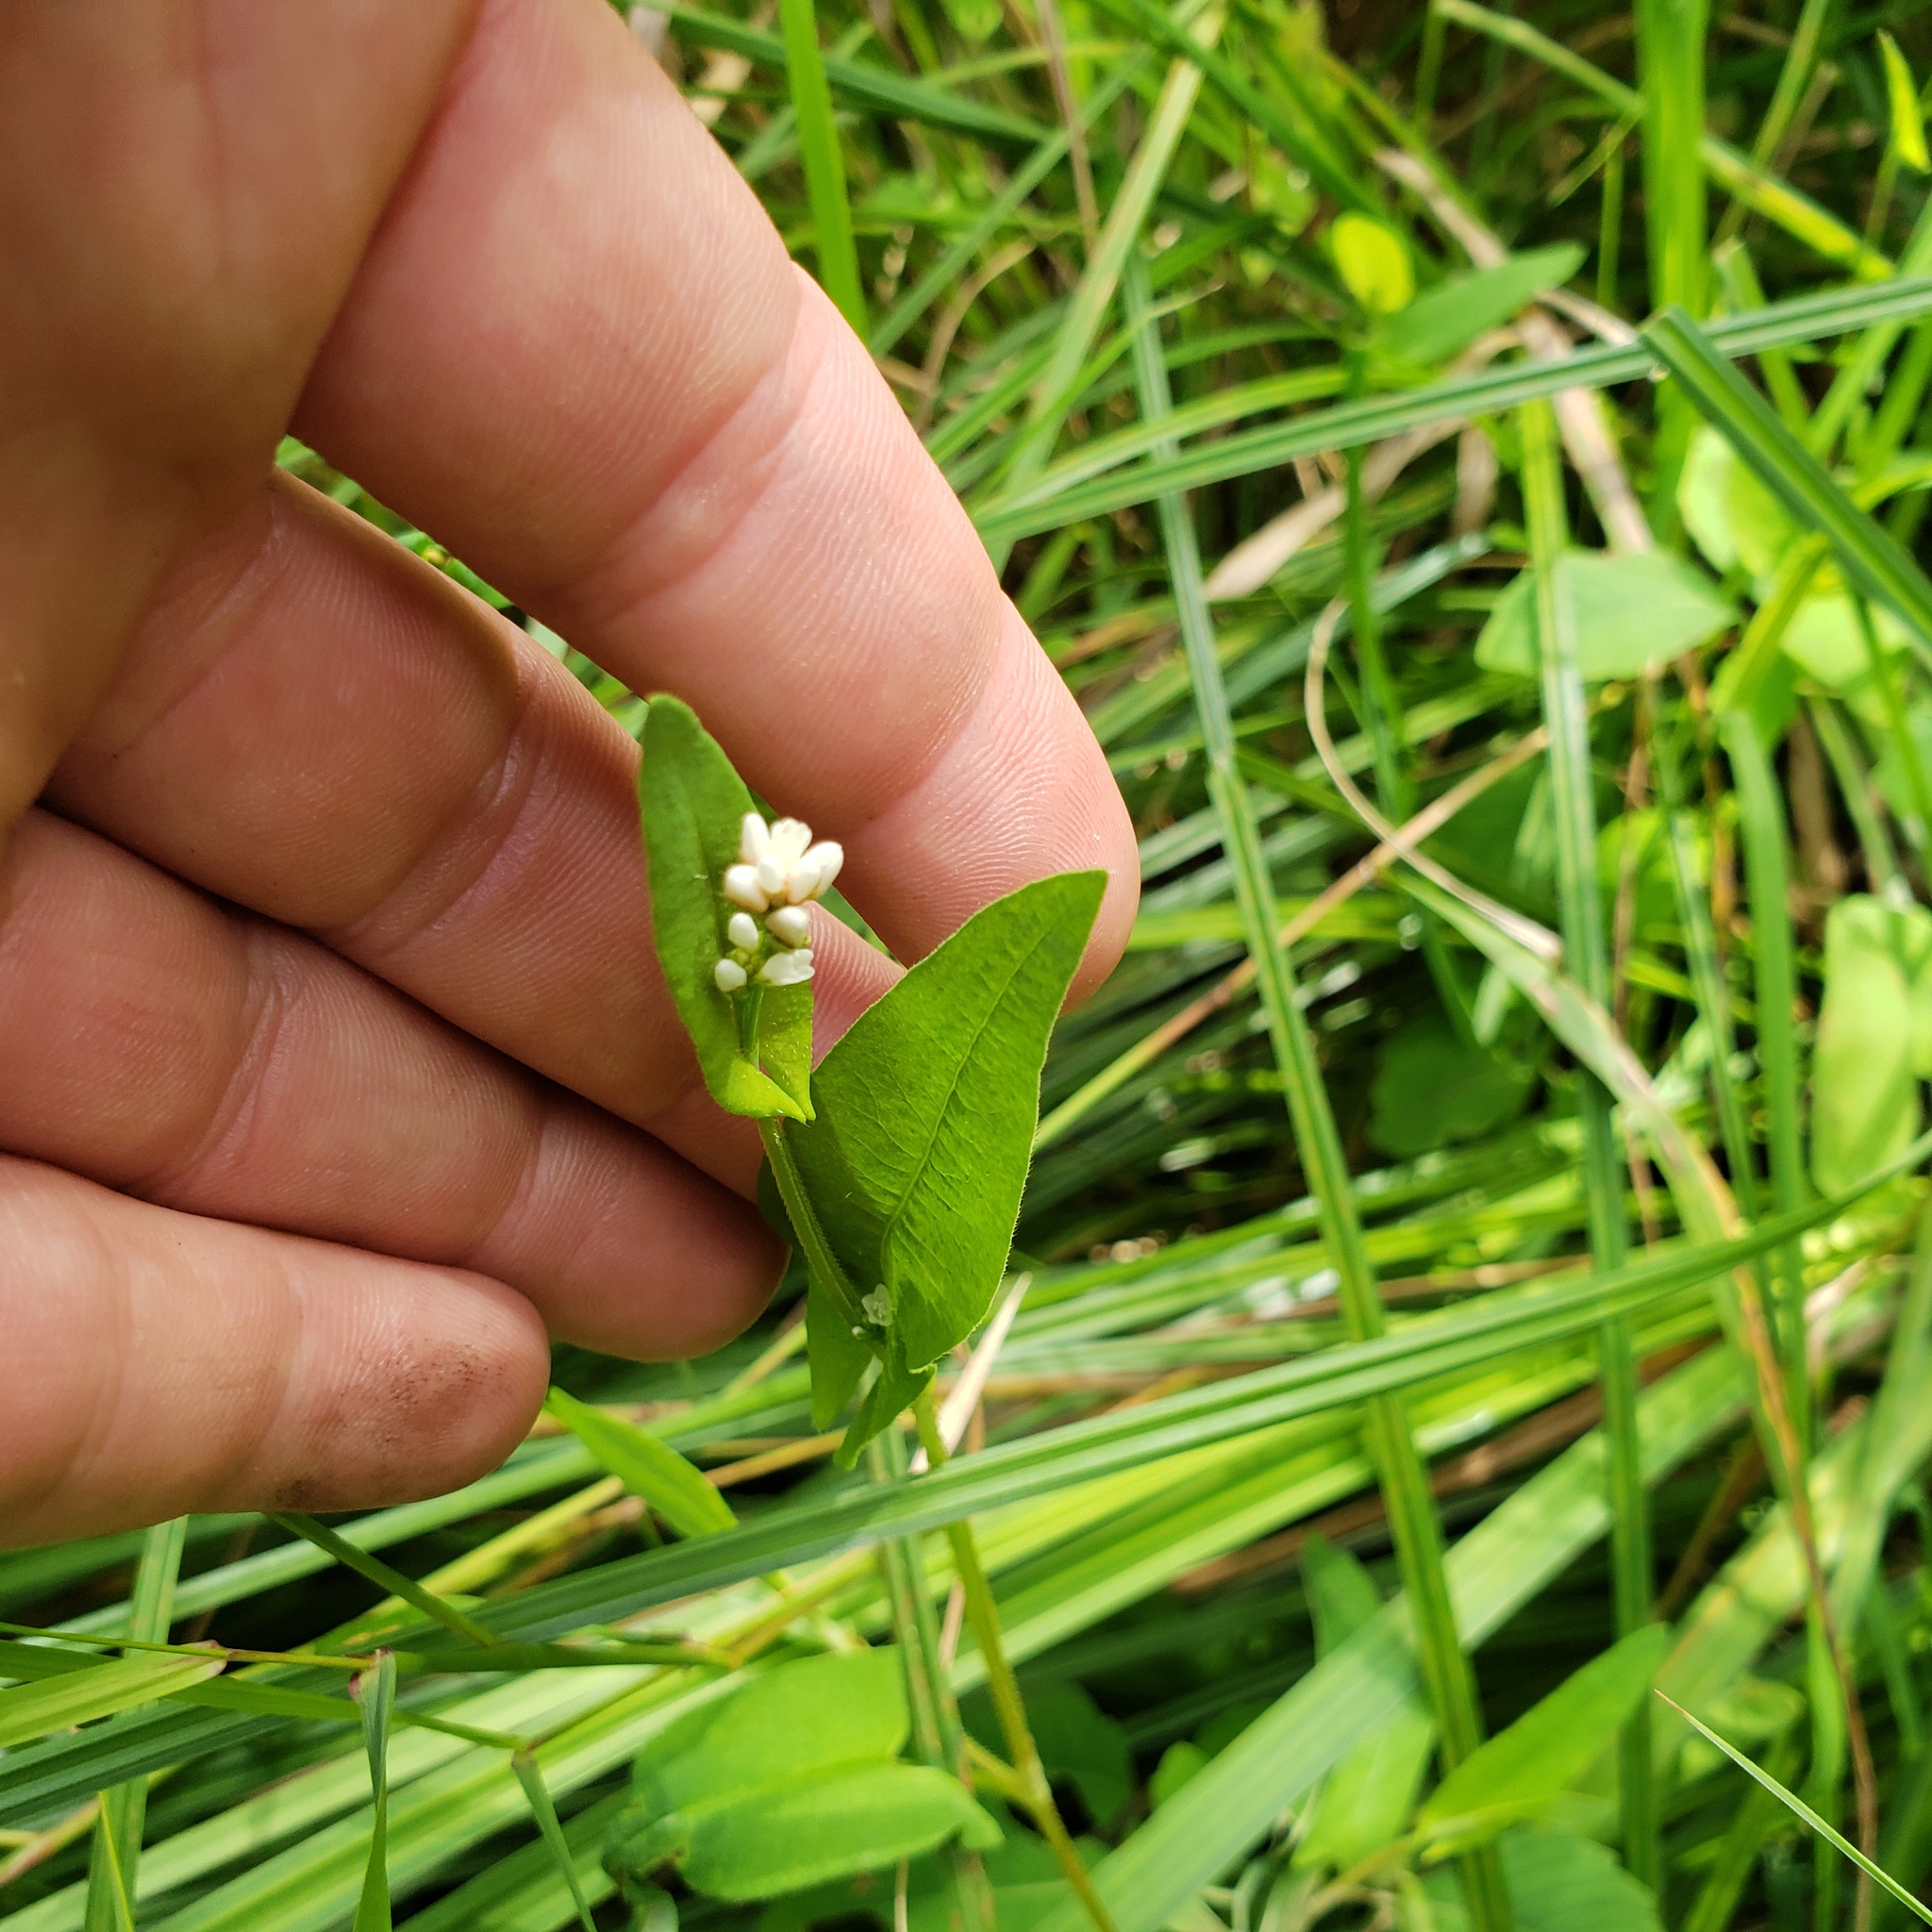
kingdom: Plantae
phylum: Tracheophyta
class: Magnoliopsida
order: Caryophyllales
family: Polygonaceae
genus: Persicaria
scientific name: Persicaria sagittata
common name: American tearthumb
